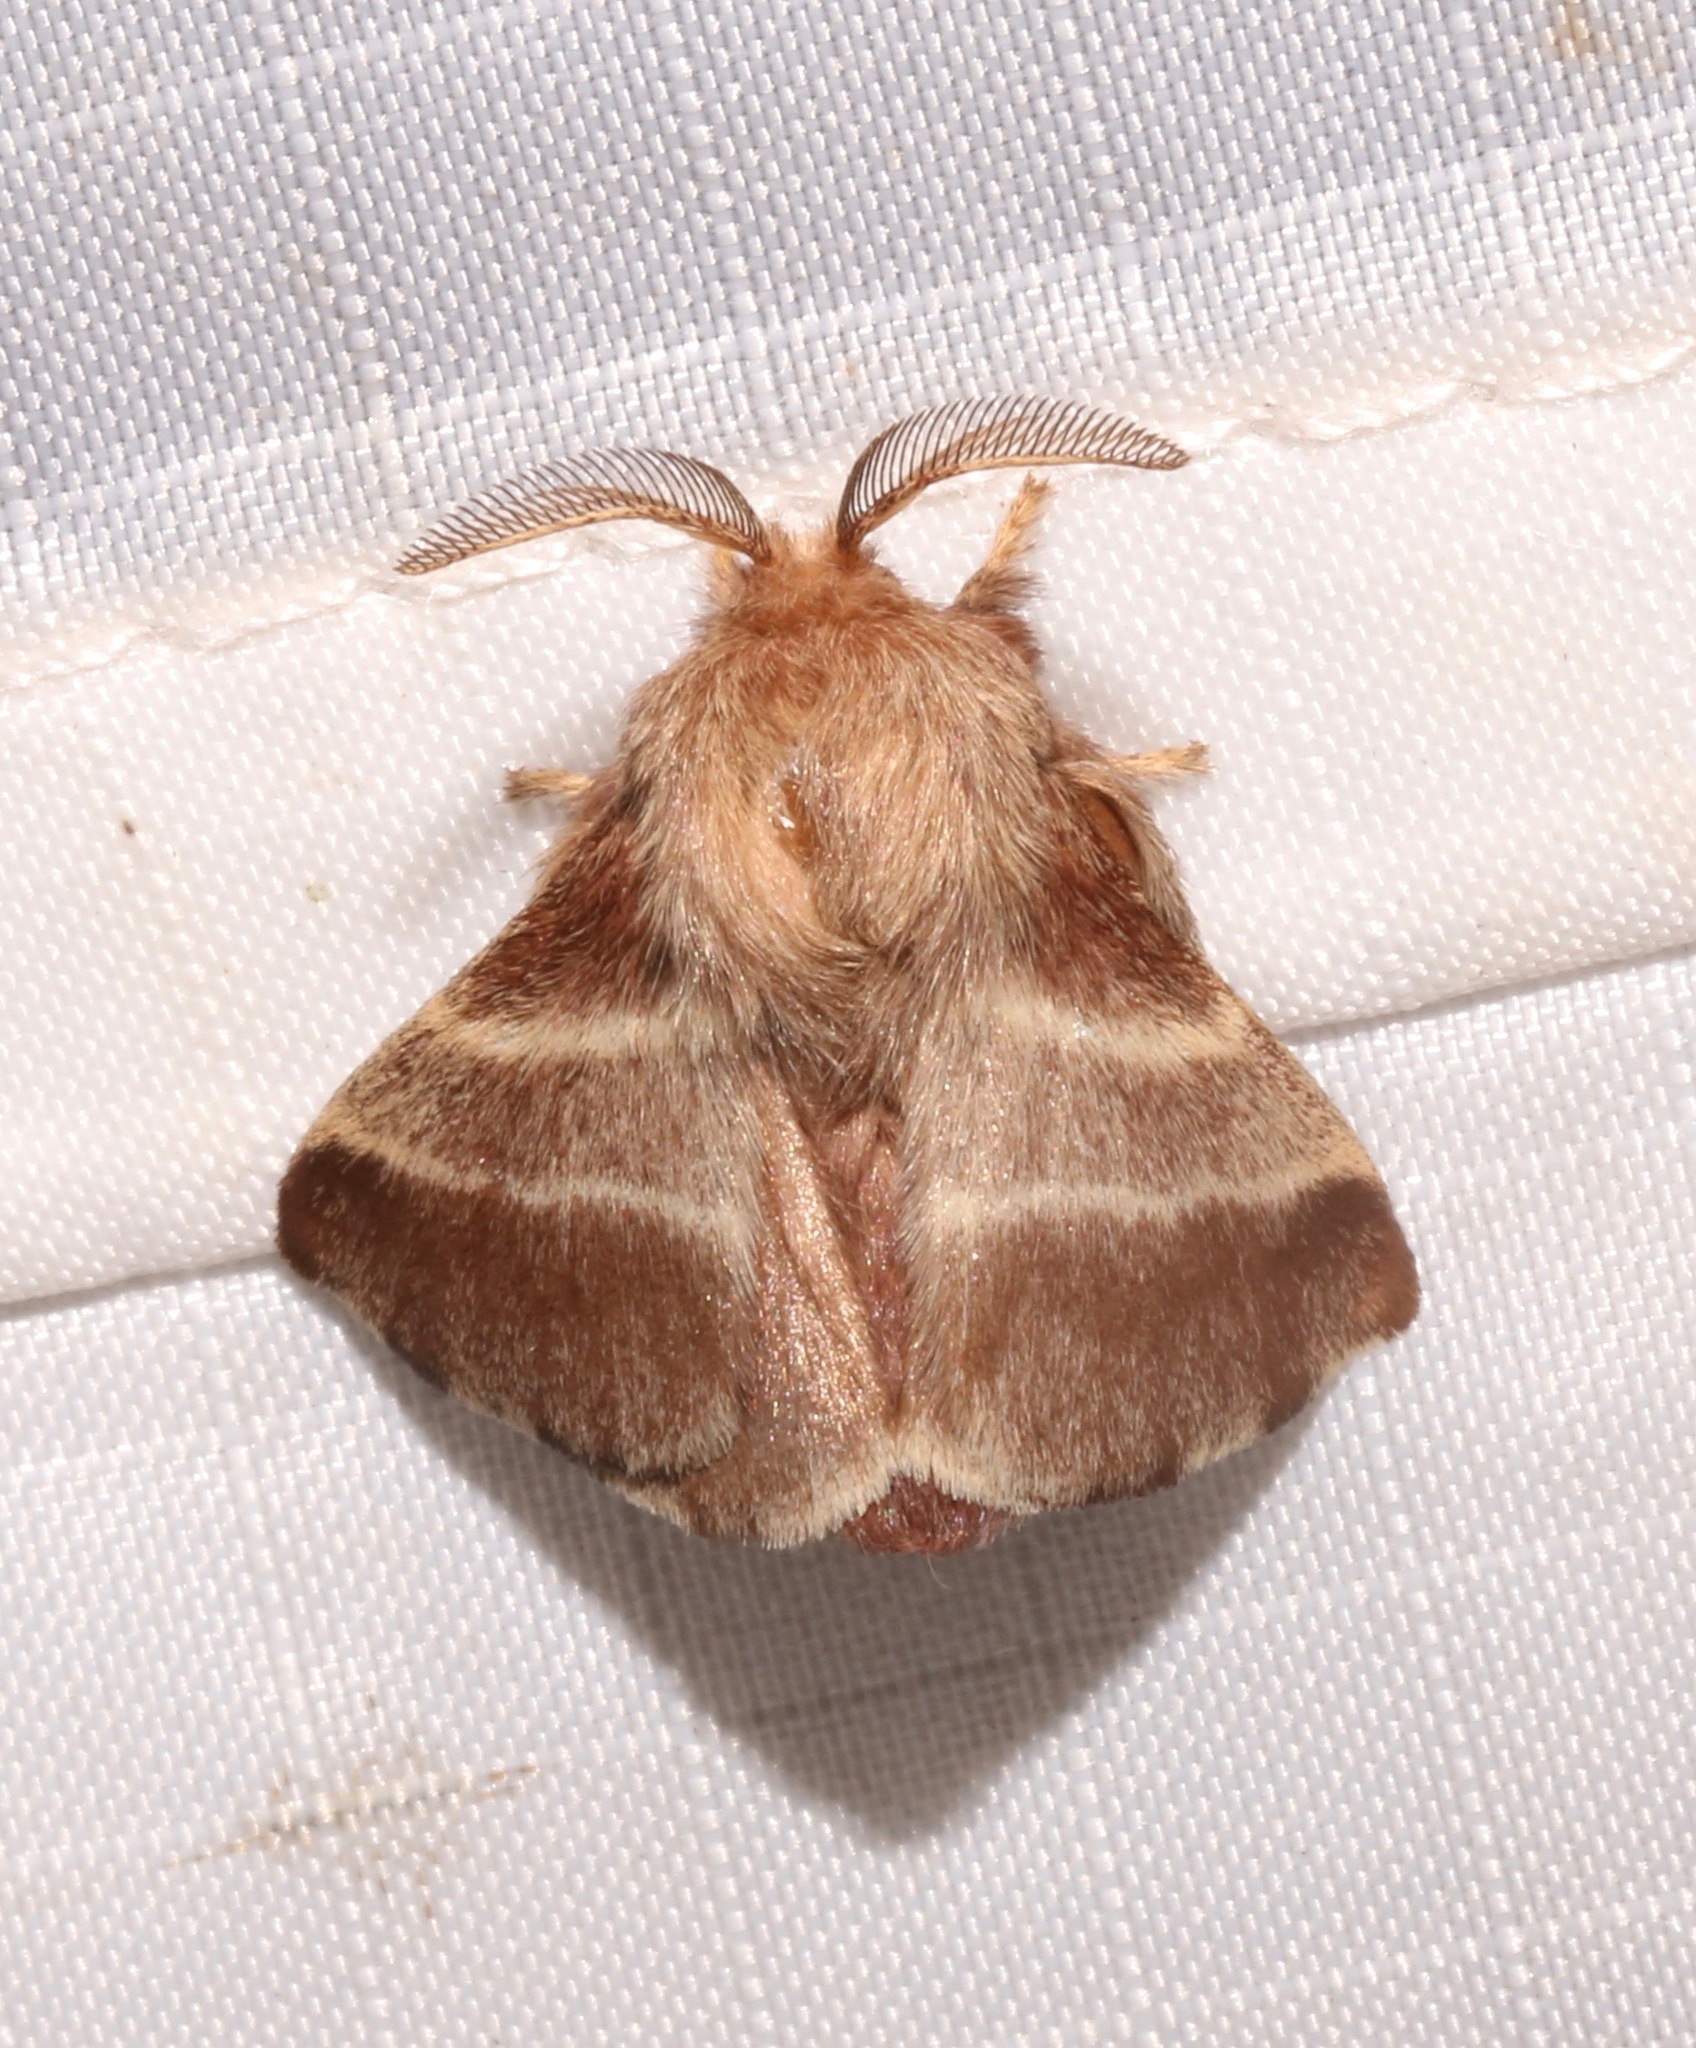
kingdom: Animalia
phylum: Arthropoda
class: Insecta
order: Lepidoptera
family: Lasiocampidae
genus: Malacosoma
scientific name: Malacosoma americana
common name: Eastern tent caterpillar moth
